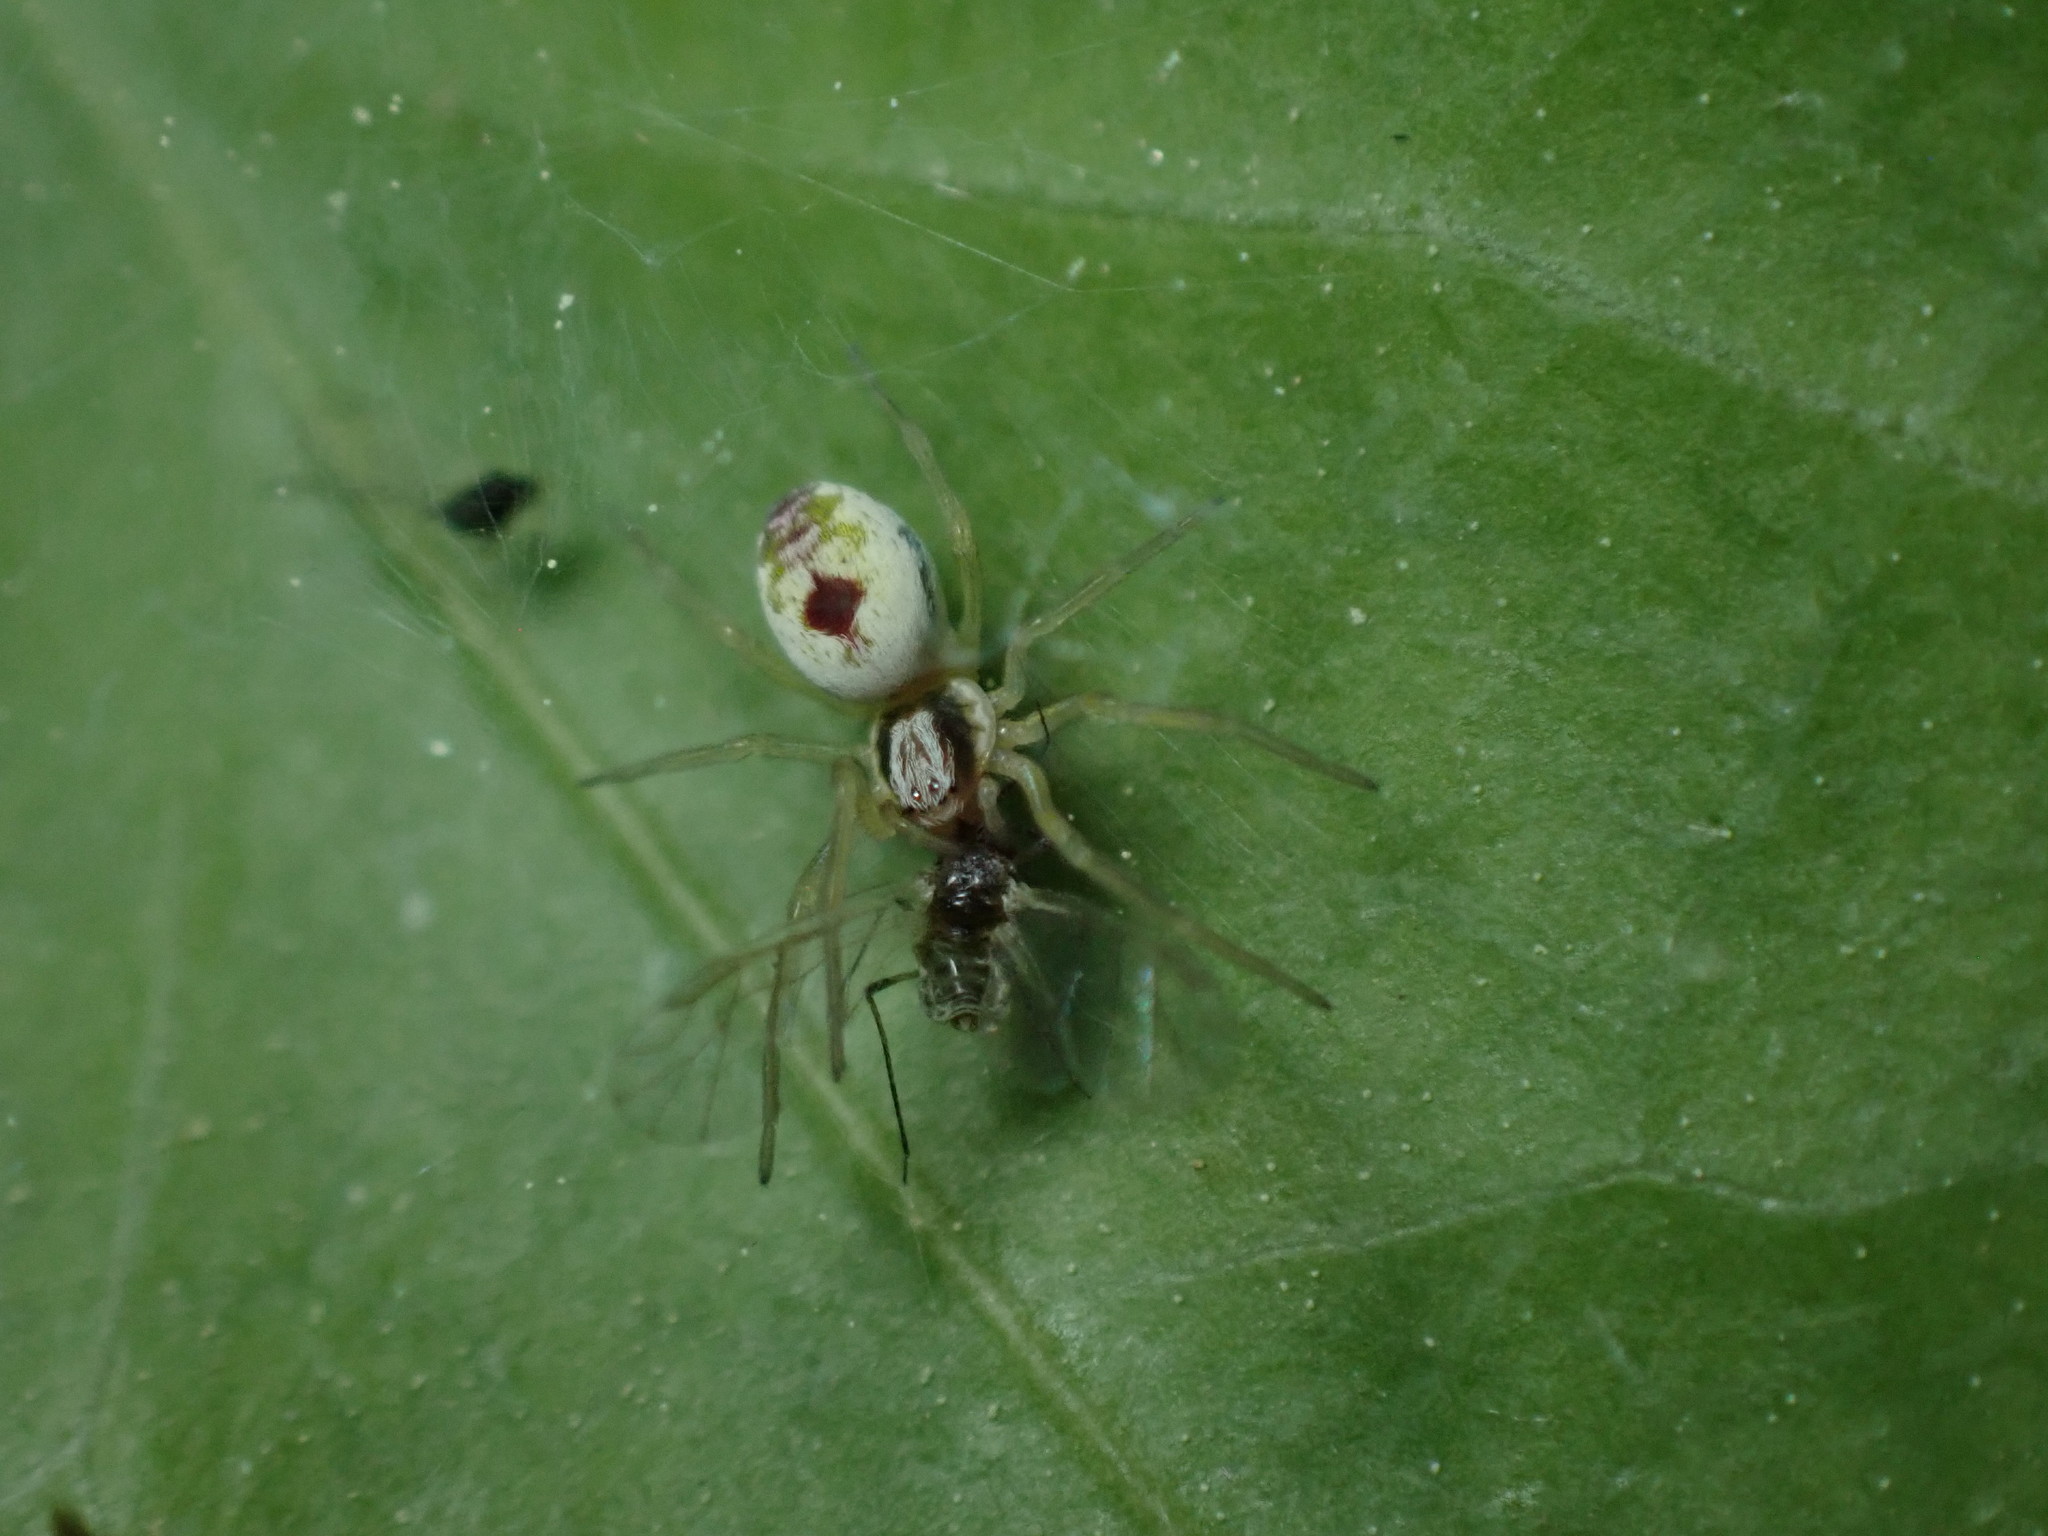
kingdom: Animalia
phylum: Arthropoda
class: Arachnida
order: Araneae
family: Dictynidae
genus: Nigma
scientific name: Nigma puella
